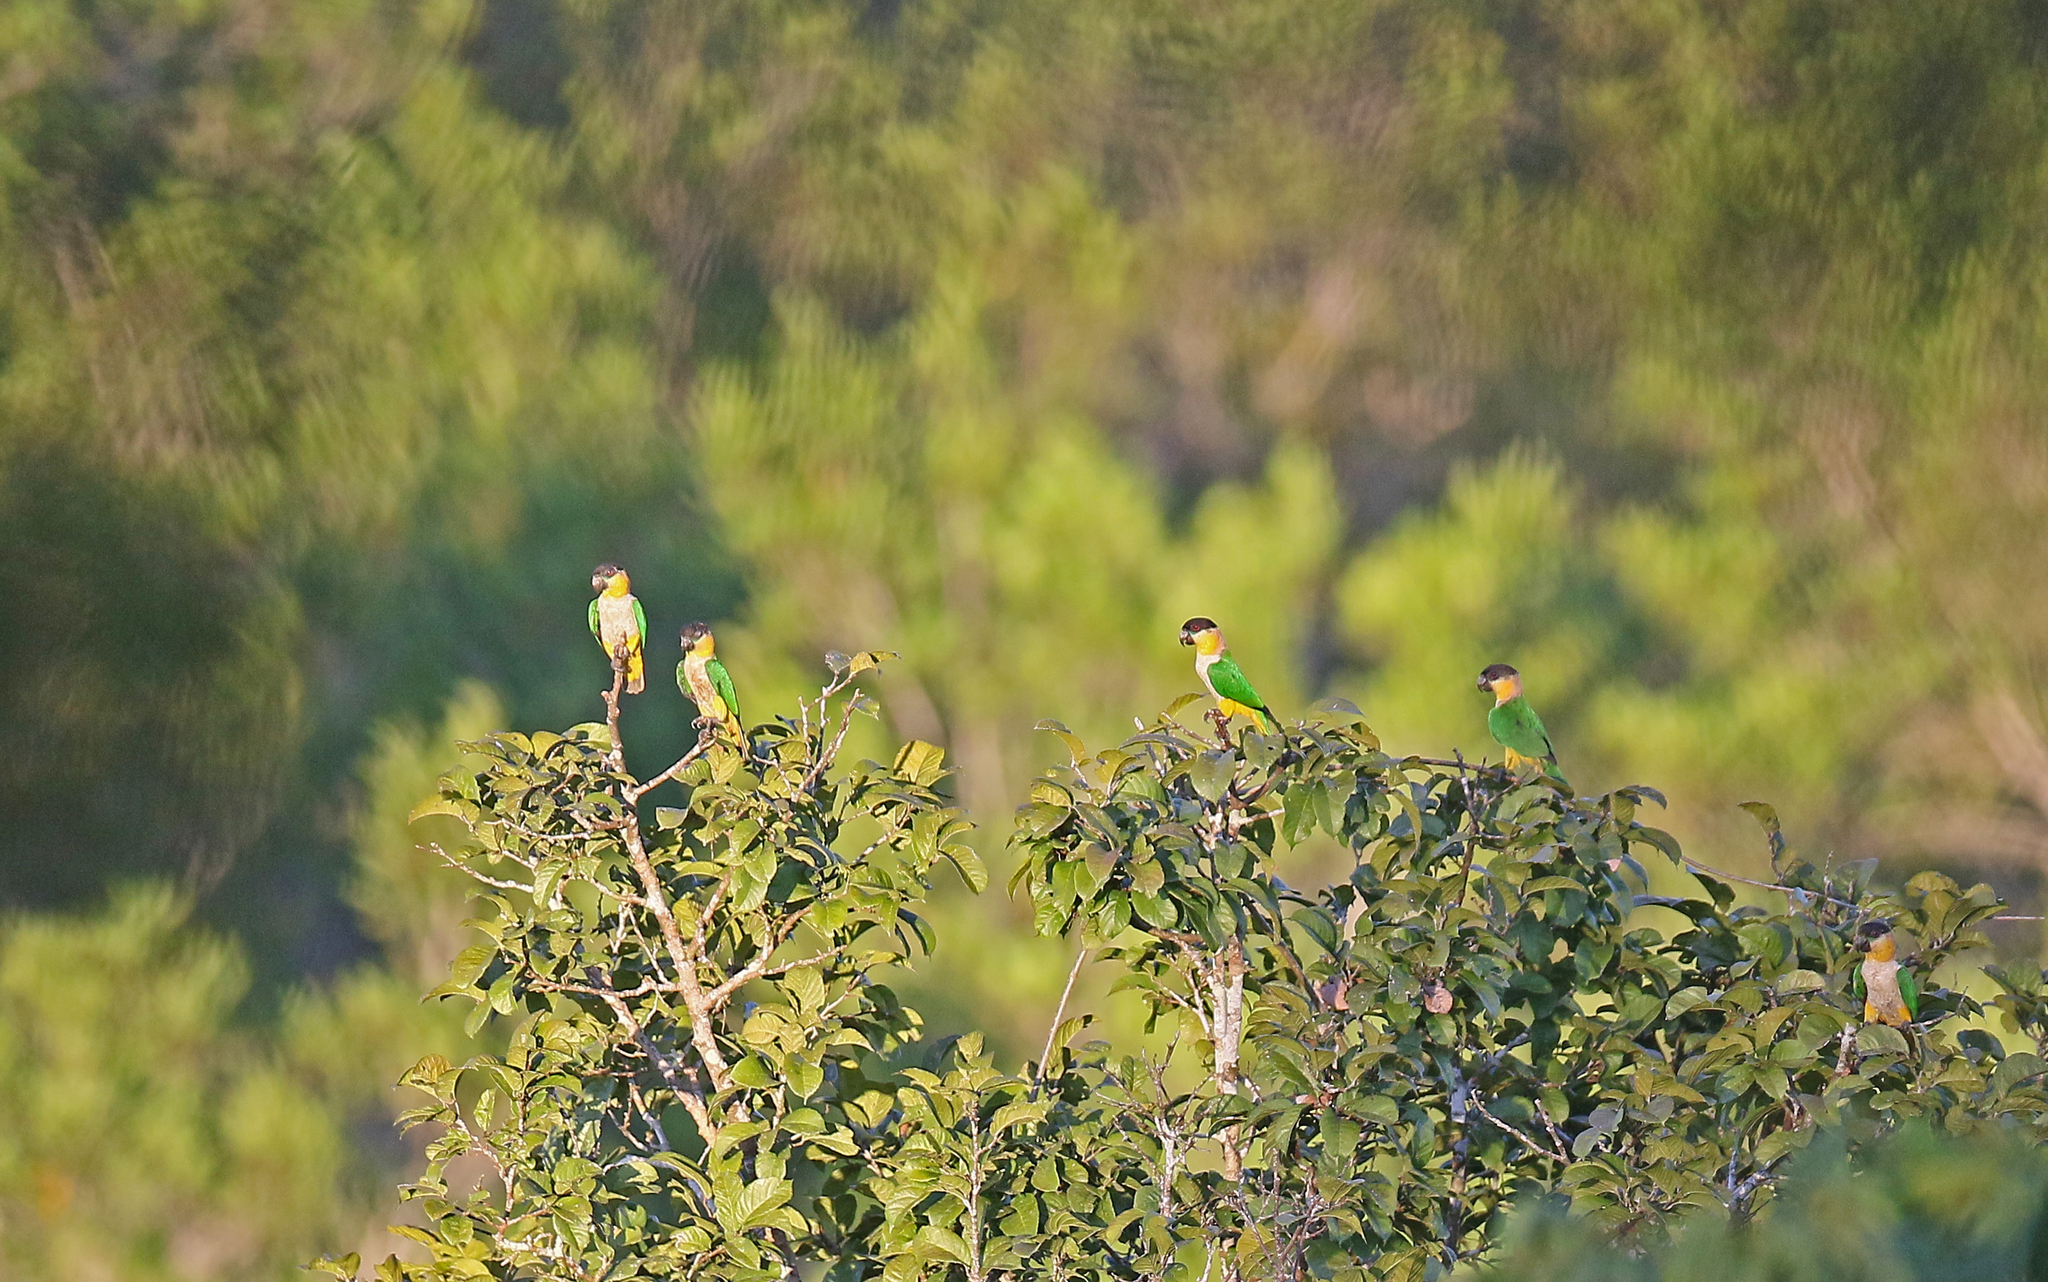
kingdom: Animalia
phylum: Chordata
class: Aves
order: Psittaciformes
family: Psittacidae
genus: Pionites
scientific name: Pionites melanocephalus
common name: Black-headed parrot
